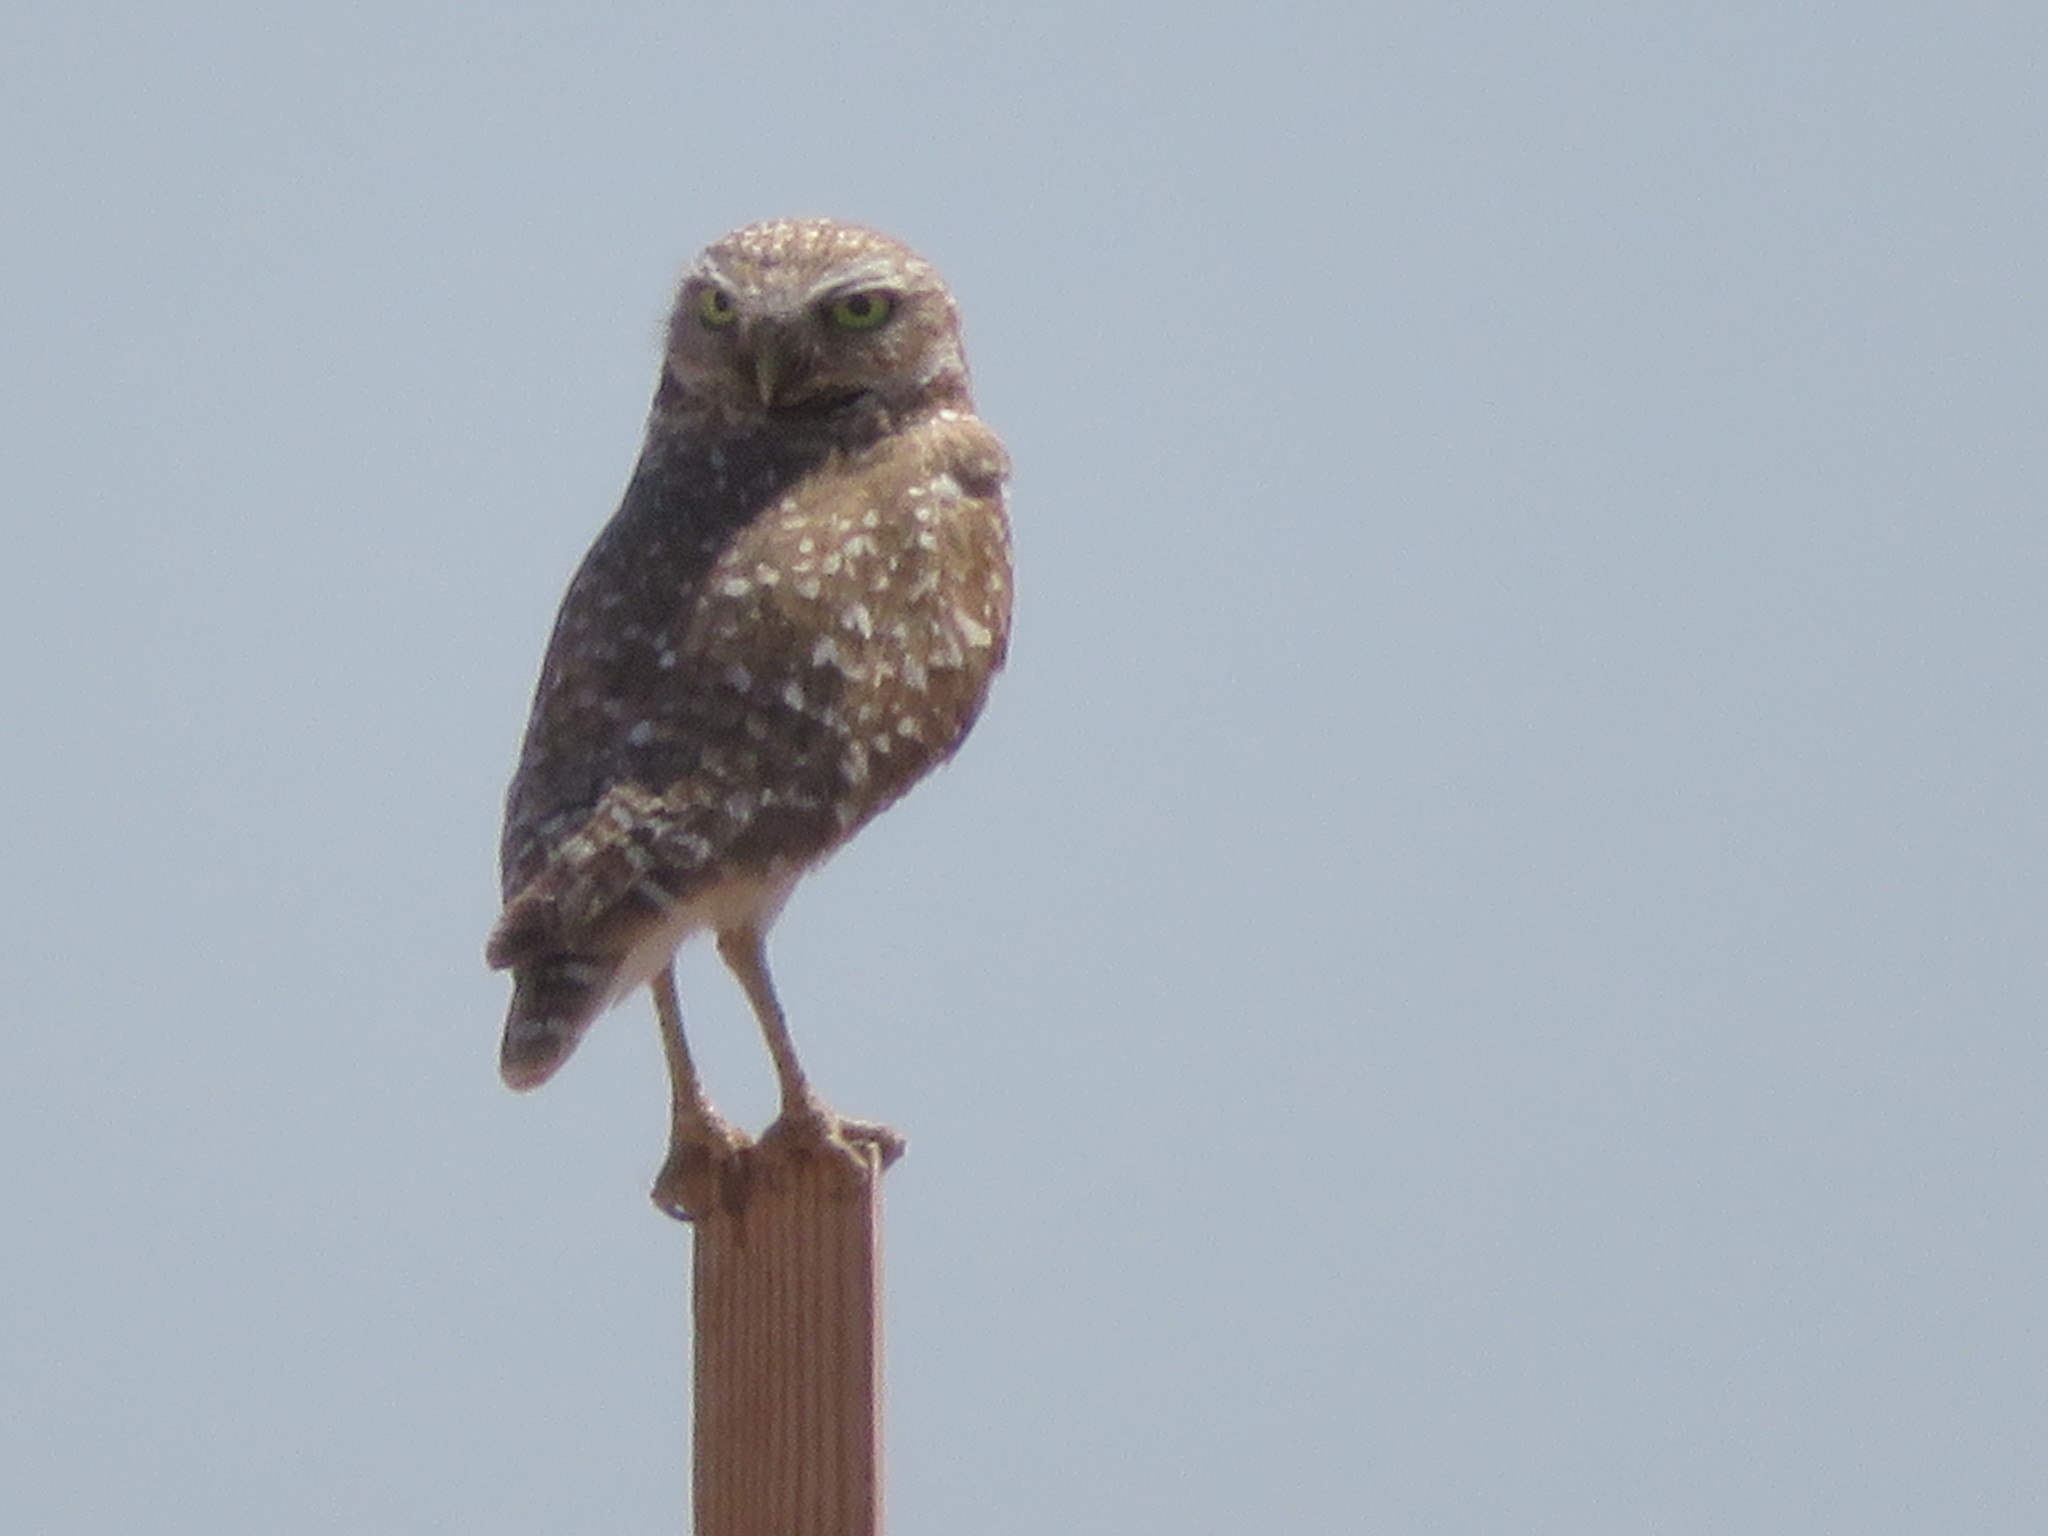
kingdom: Animalia
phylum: Chordata
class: Aves
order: Strigiformes
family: Strigidae
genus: Athene
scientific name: Athene cunicularia
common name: Burrowing owl
